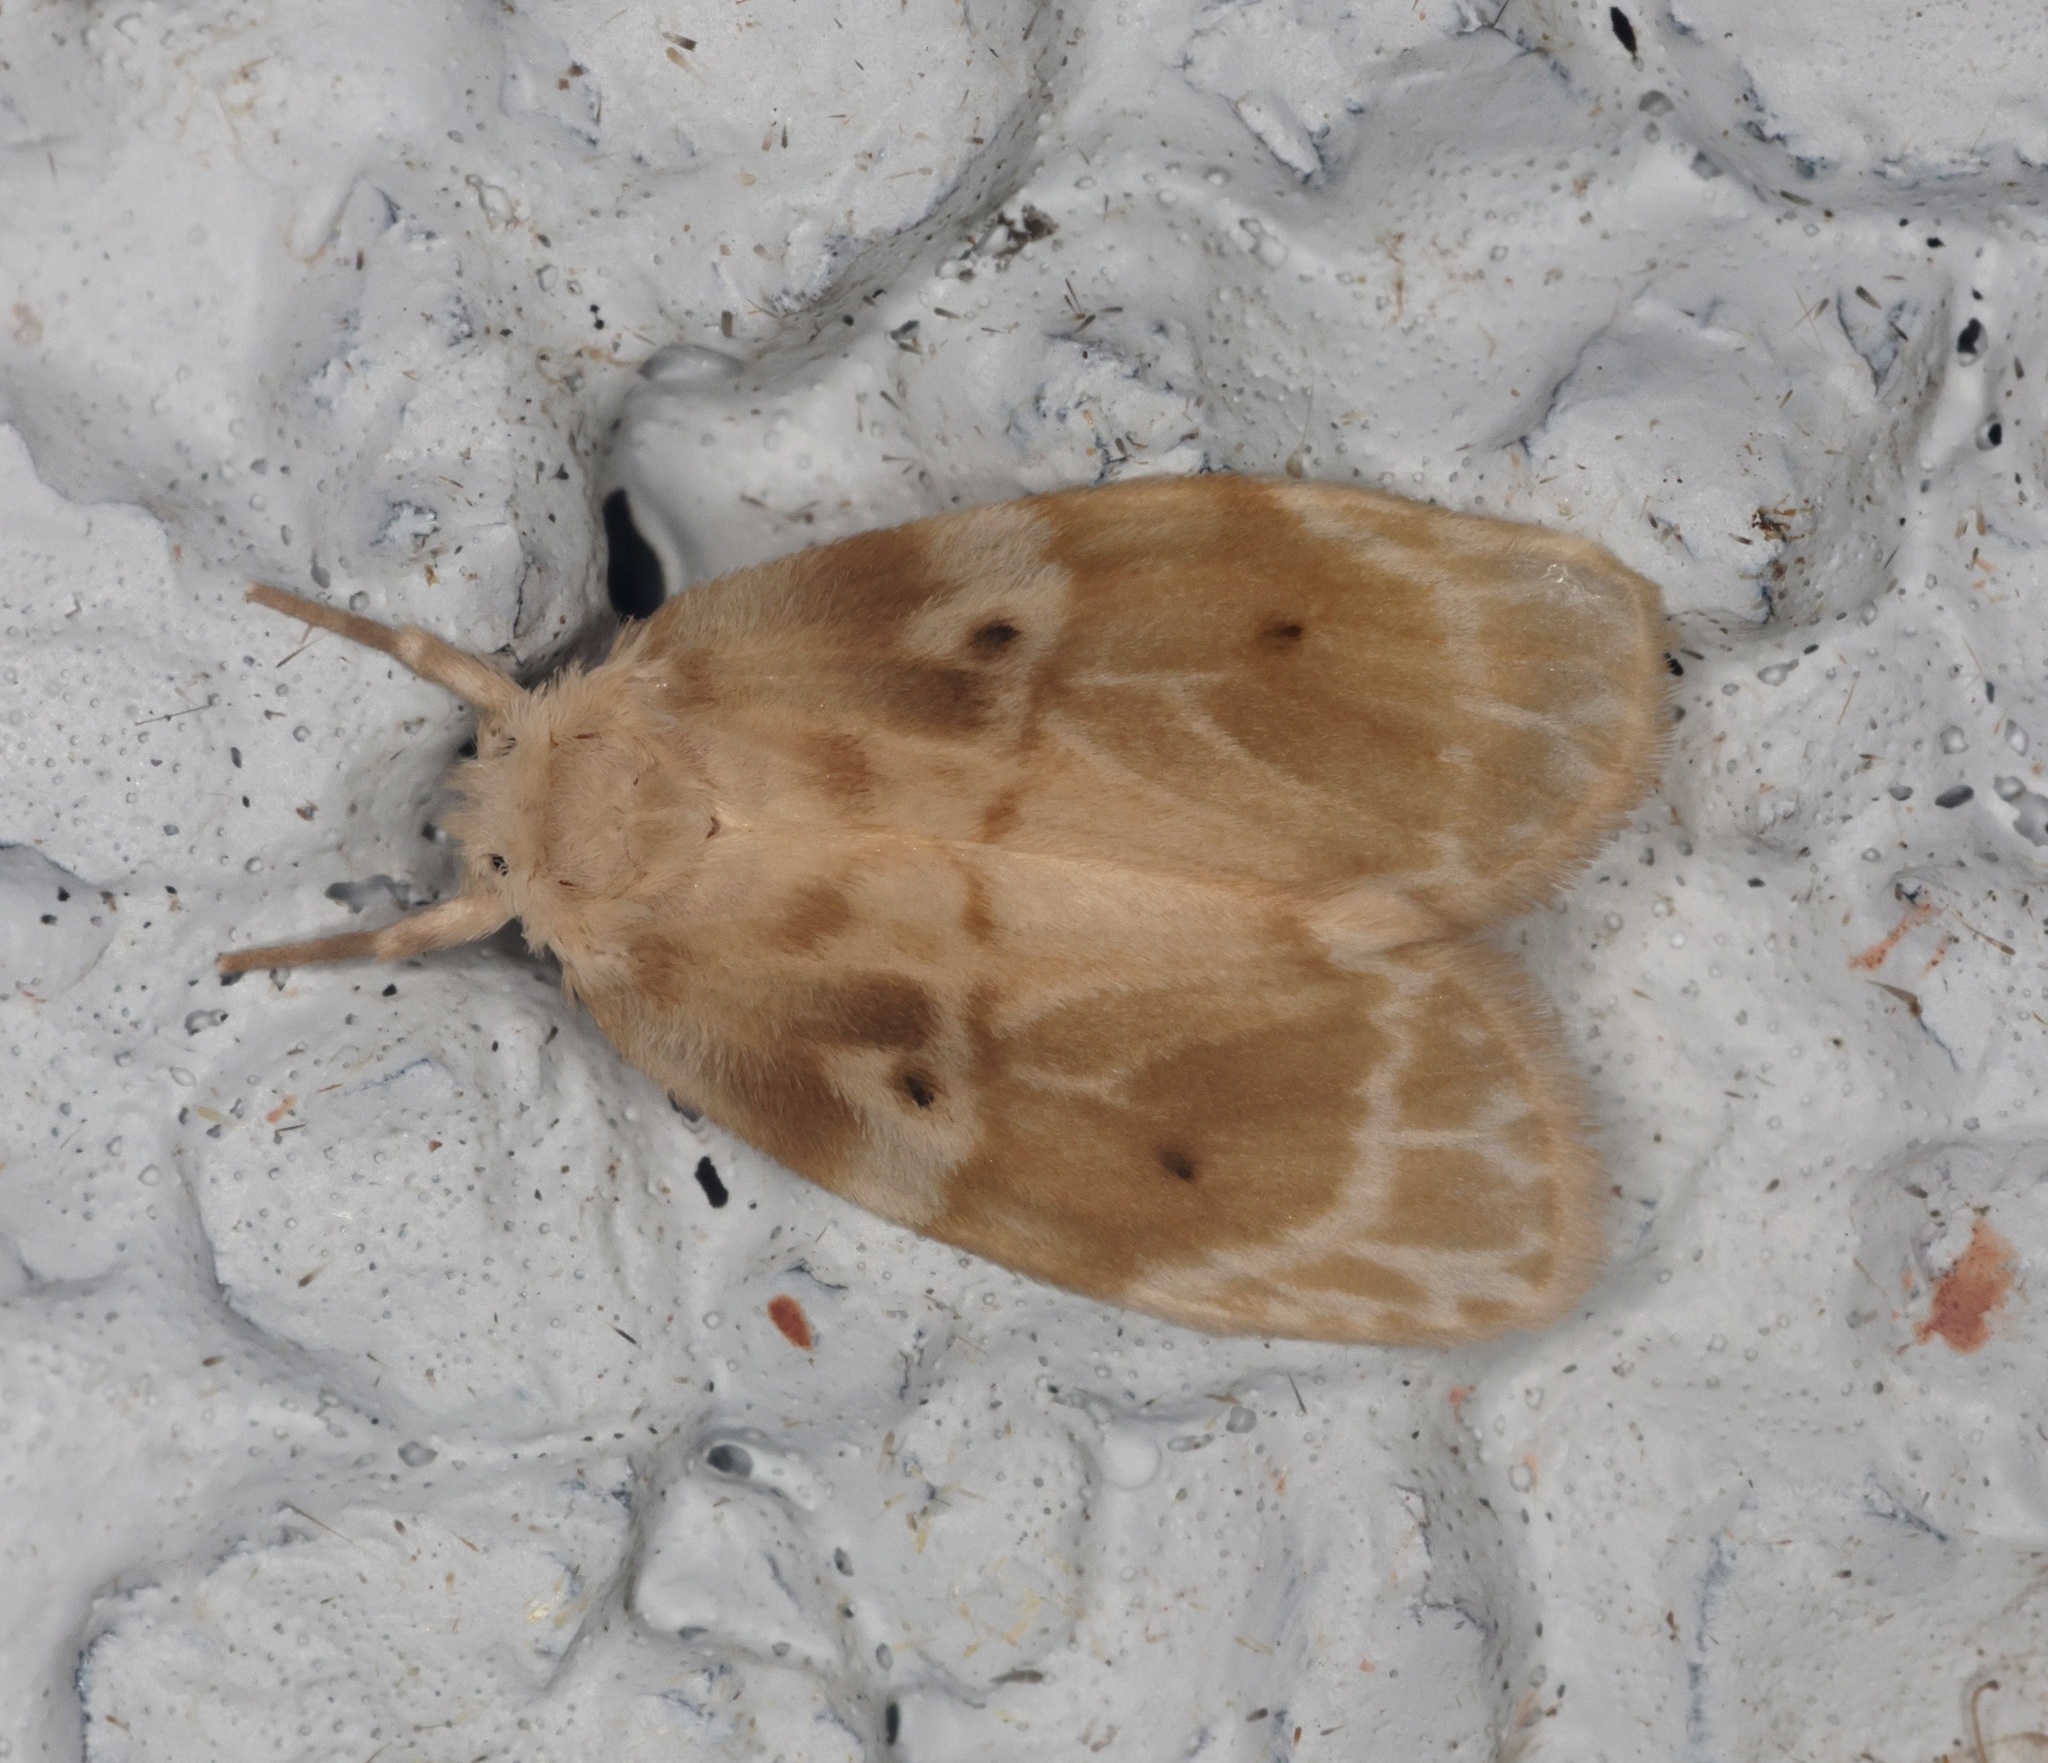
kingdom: Animalia
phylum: Arthropoda
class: Insecta
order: Lepidoptera
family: Erebidae
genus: Schistophleps
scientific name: Schistophleps bipuncta
